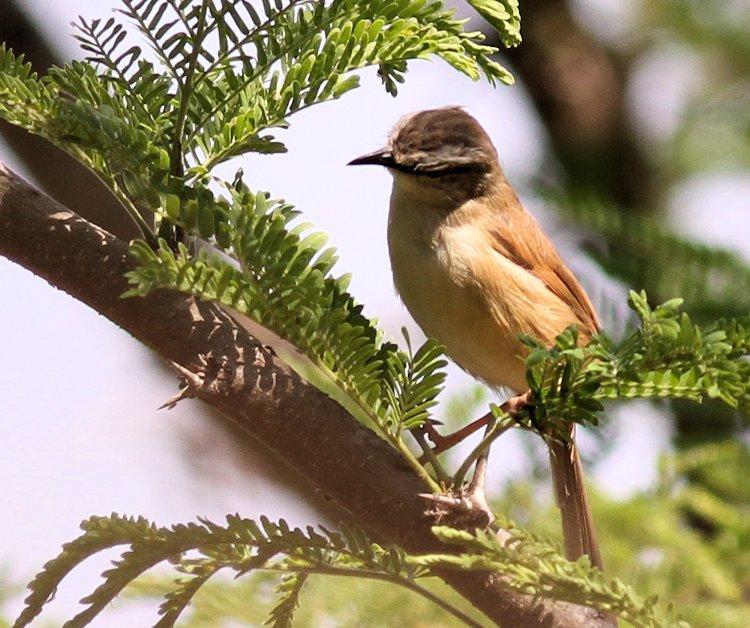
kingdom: Animalia
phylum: Chordata
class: Aves
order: Passeriformes
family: Cisticolidae
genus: Prinia
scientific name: Prinia subflava
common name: Tawny-flanked prinia
